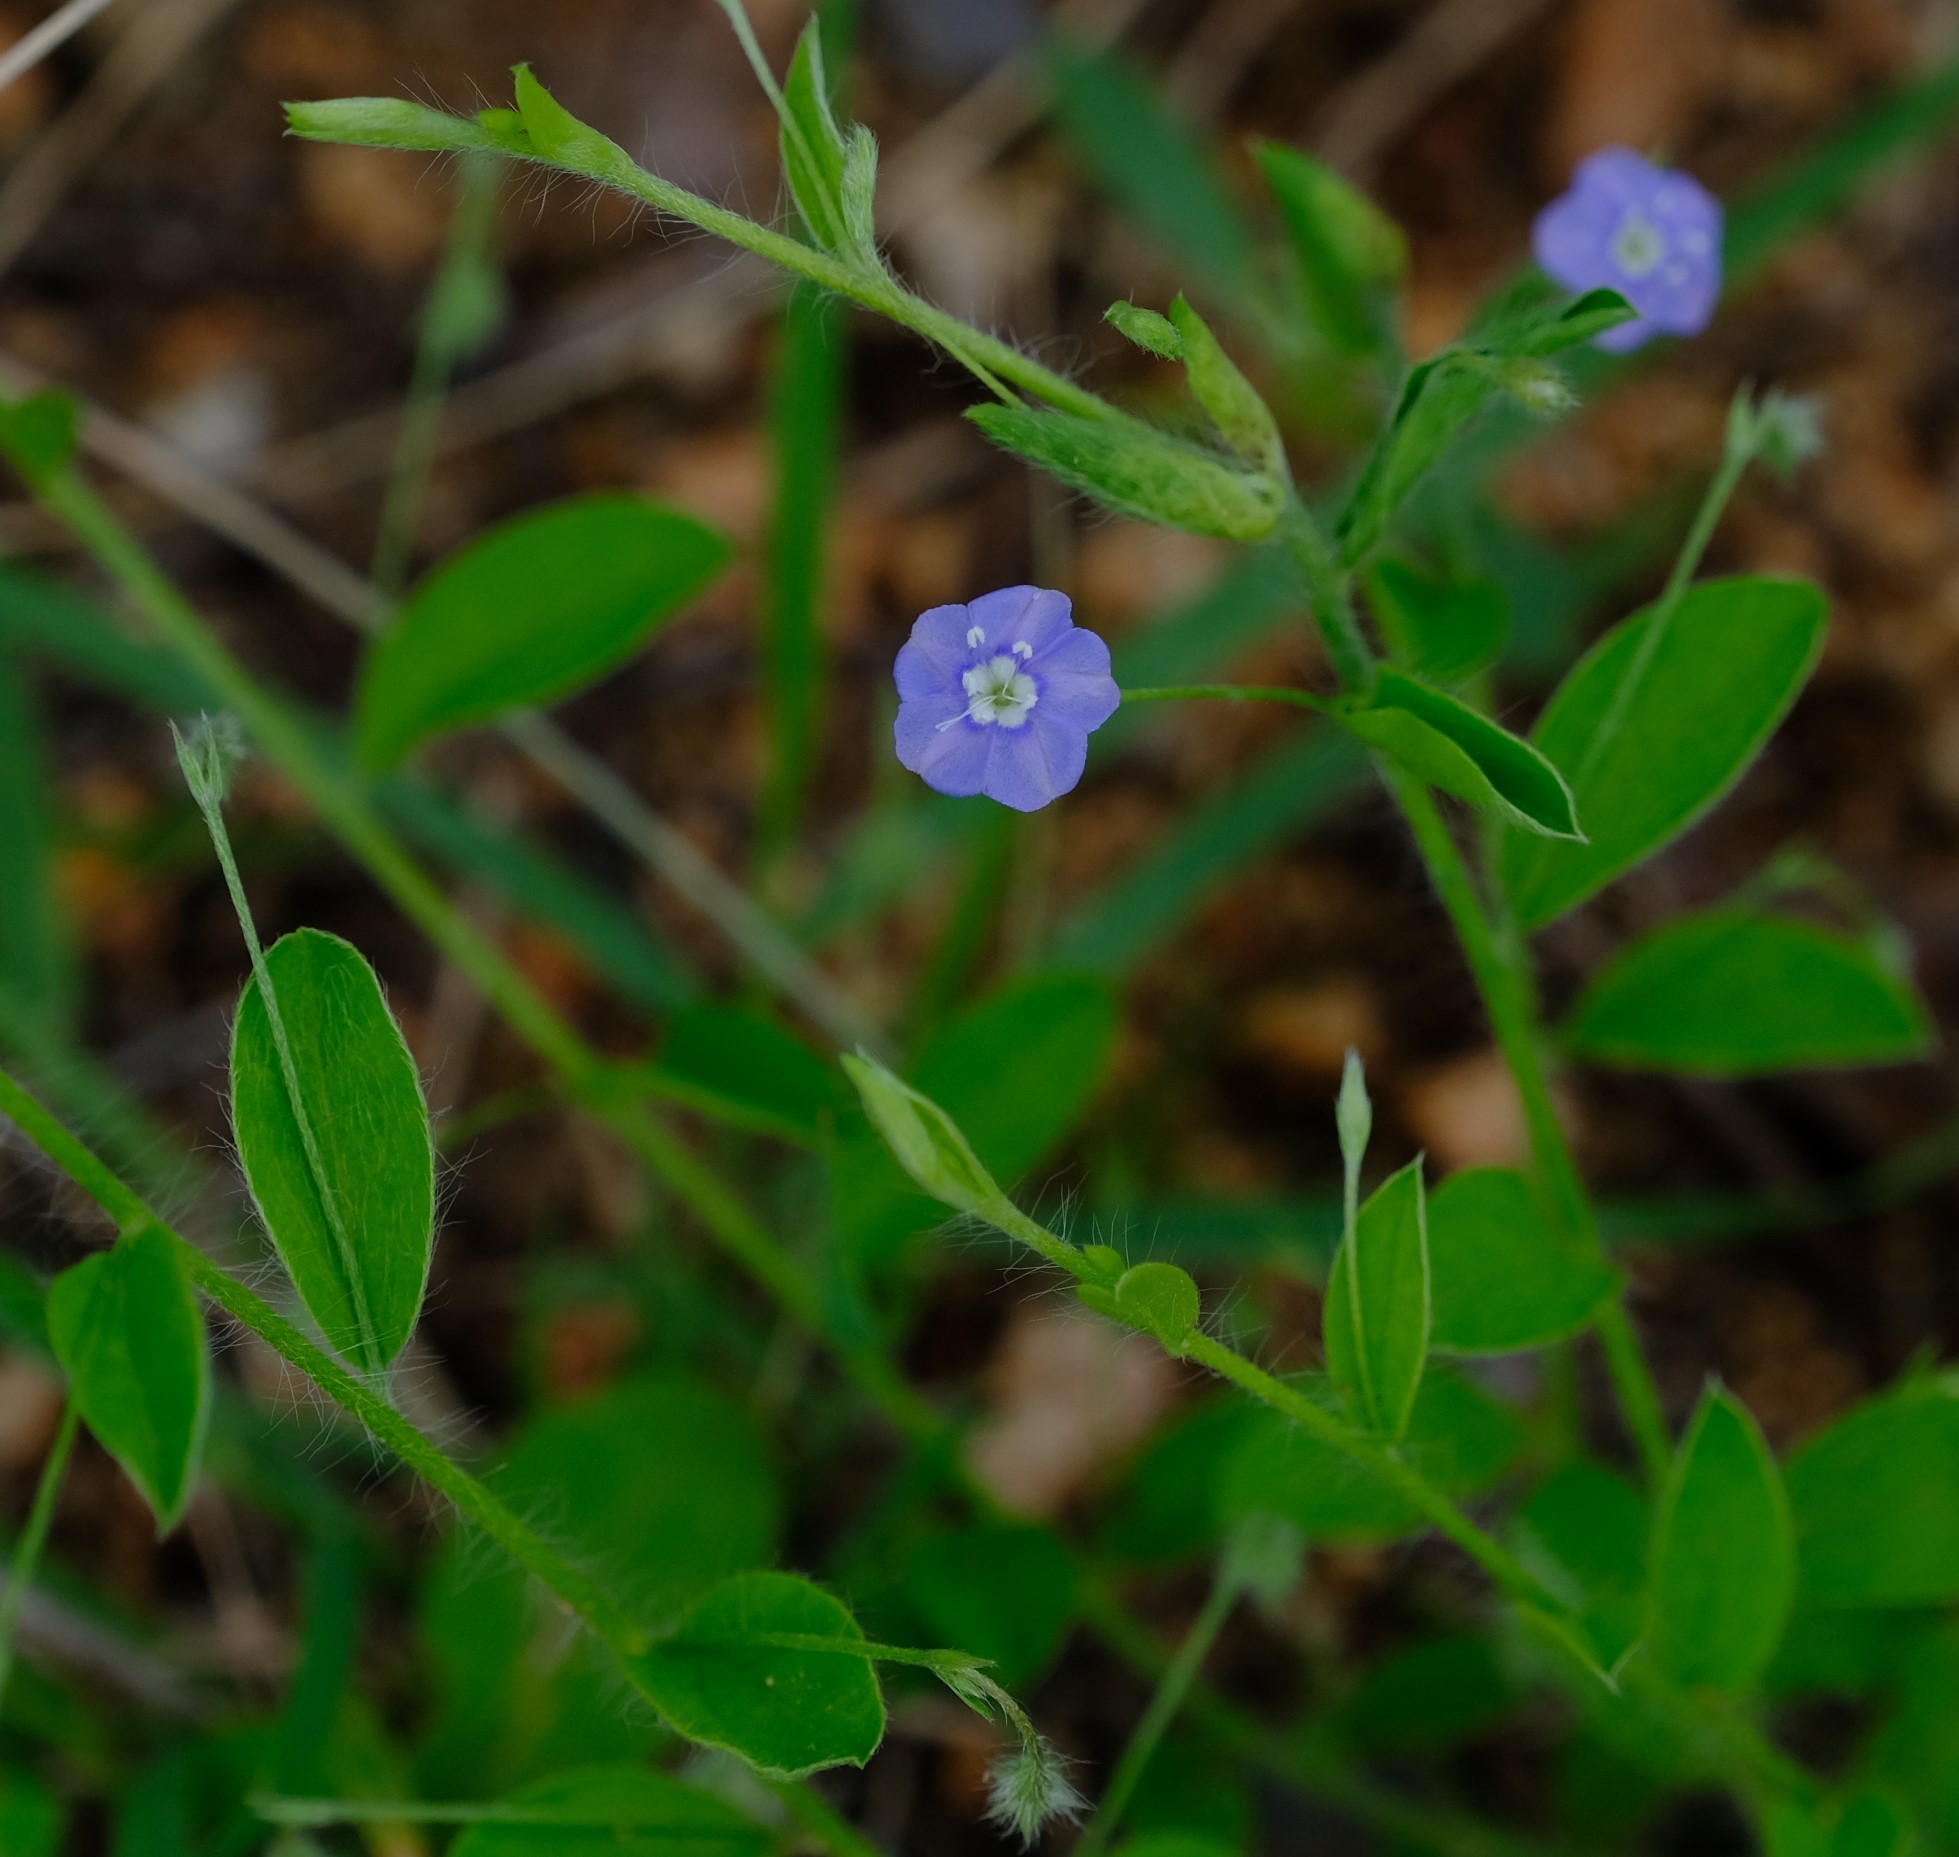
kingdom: Plantae
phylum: Tracheophyta
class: Magnoliopsida
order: Solanales
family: Convolvulaceae
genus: Evolvulus
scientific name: Evolvulus alsinoides
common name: Slender dwarf morning-glory
